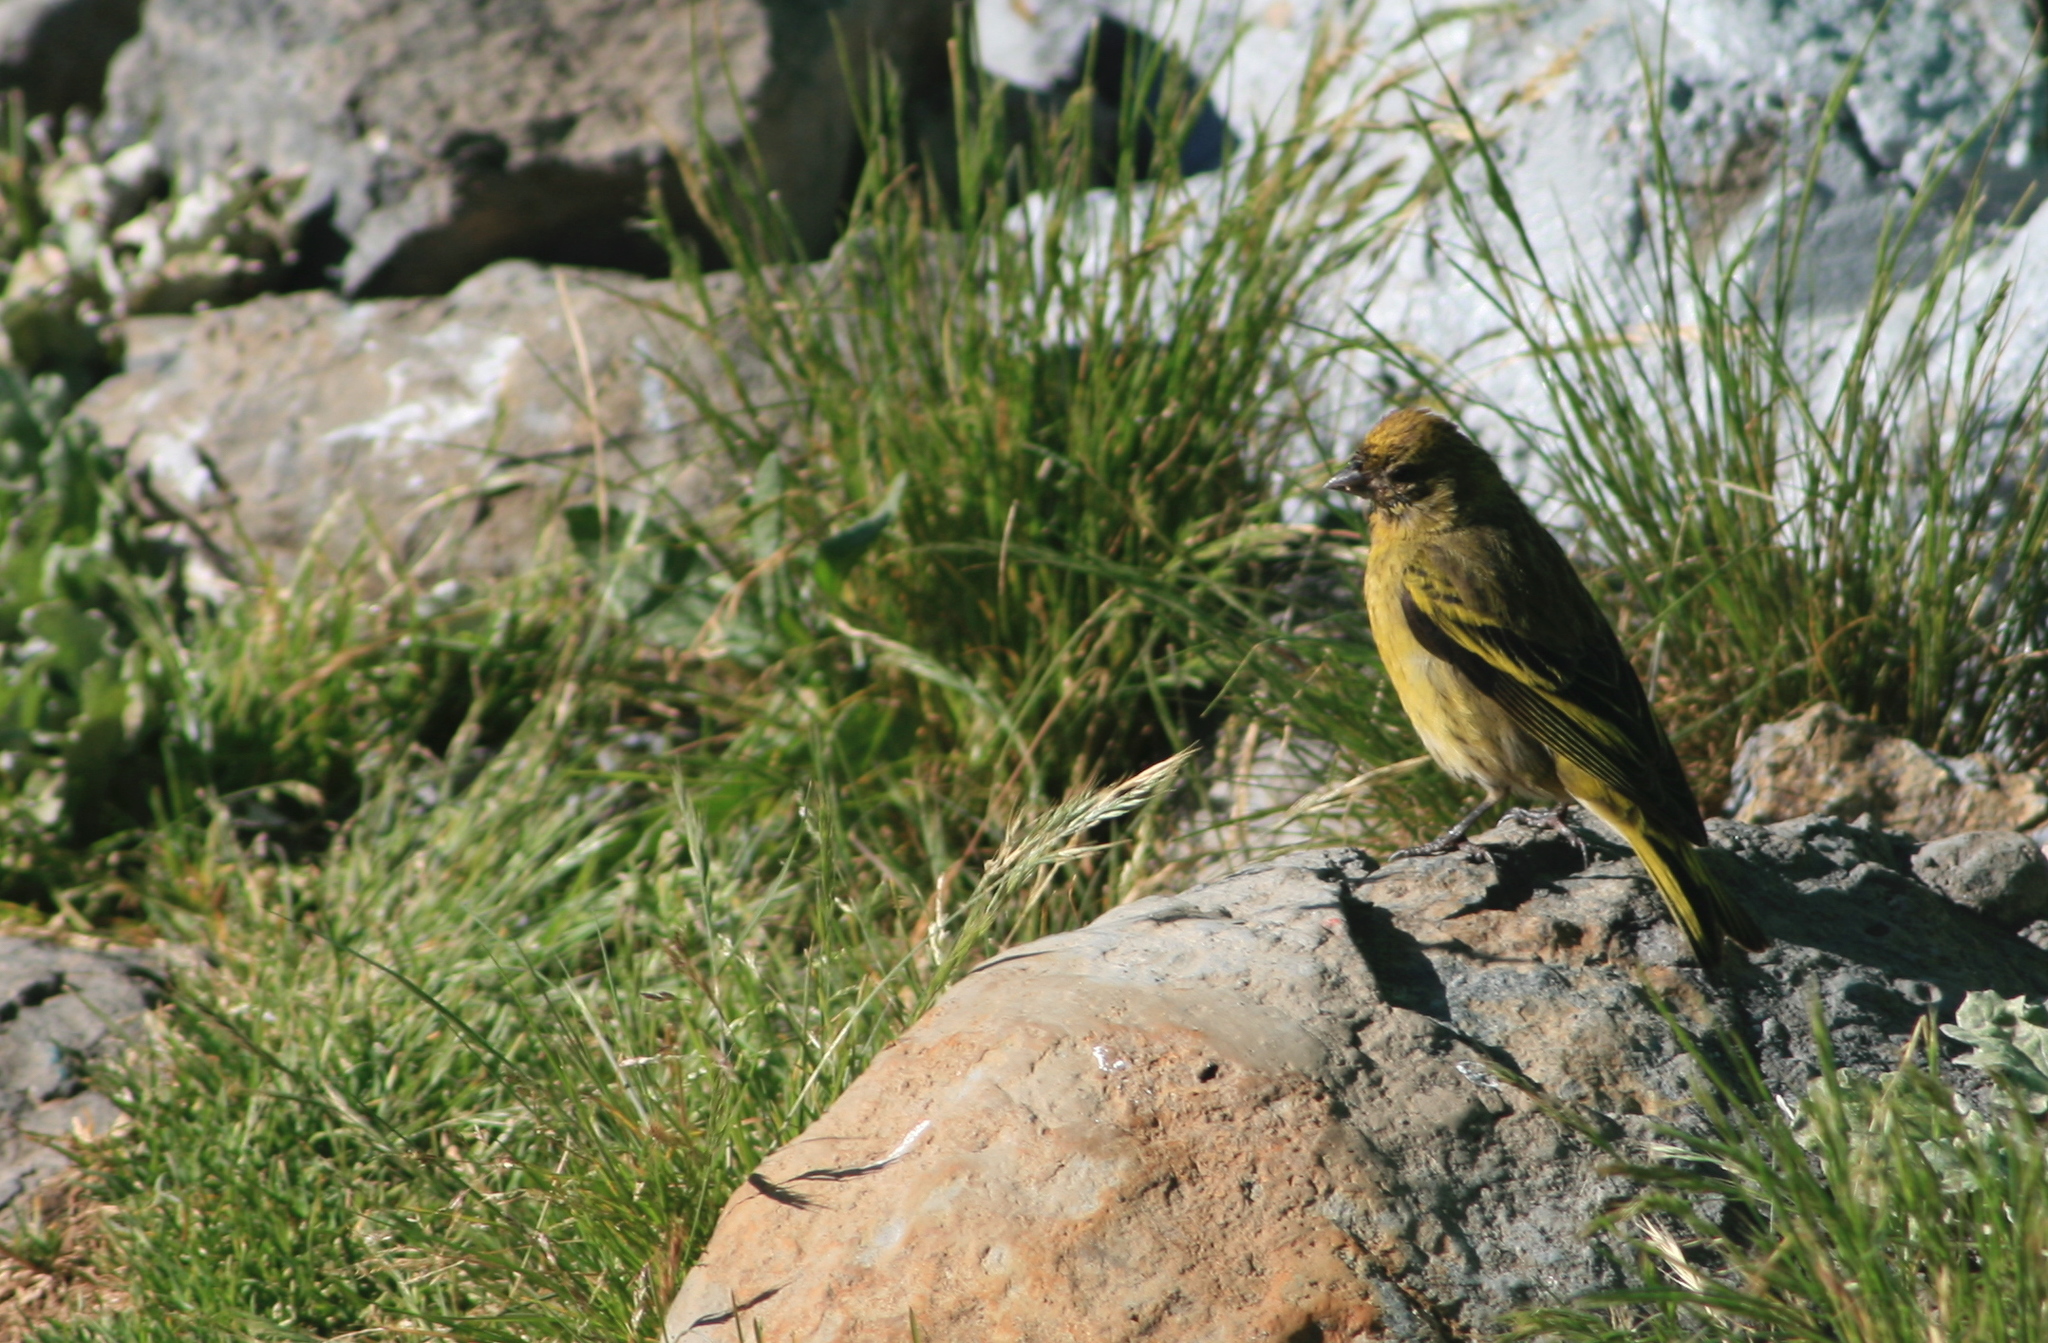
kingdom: Animalia
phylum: Chordata
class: Aves
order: Passeriformes
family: Fringillidae
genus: Serinus
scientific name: Serinus flavivertex
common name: Yellow-crowned canary
